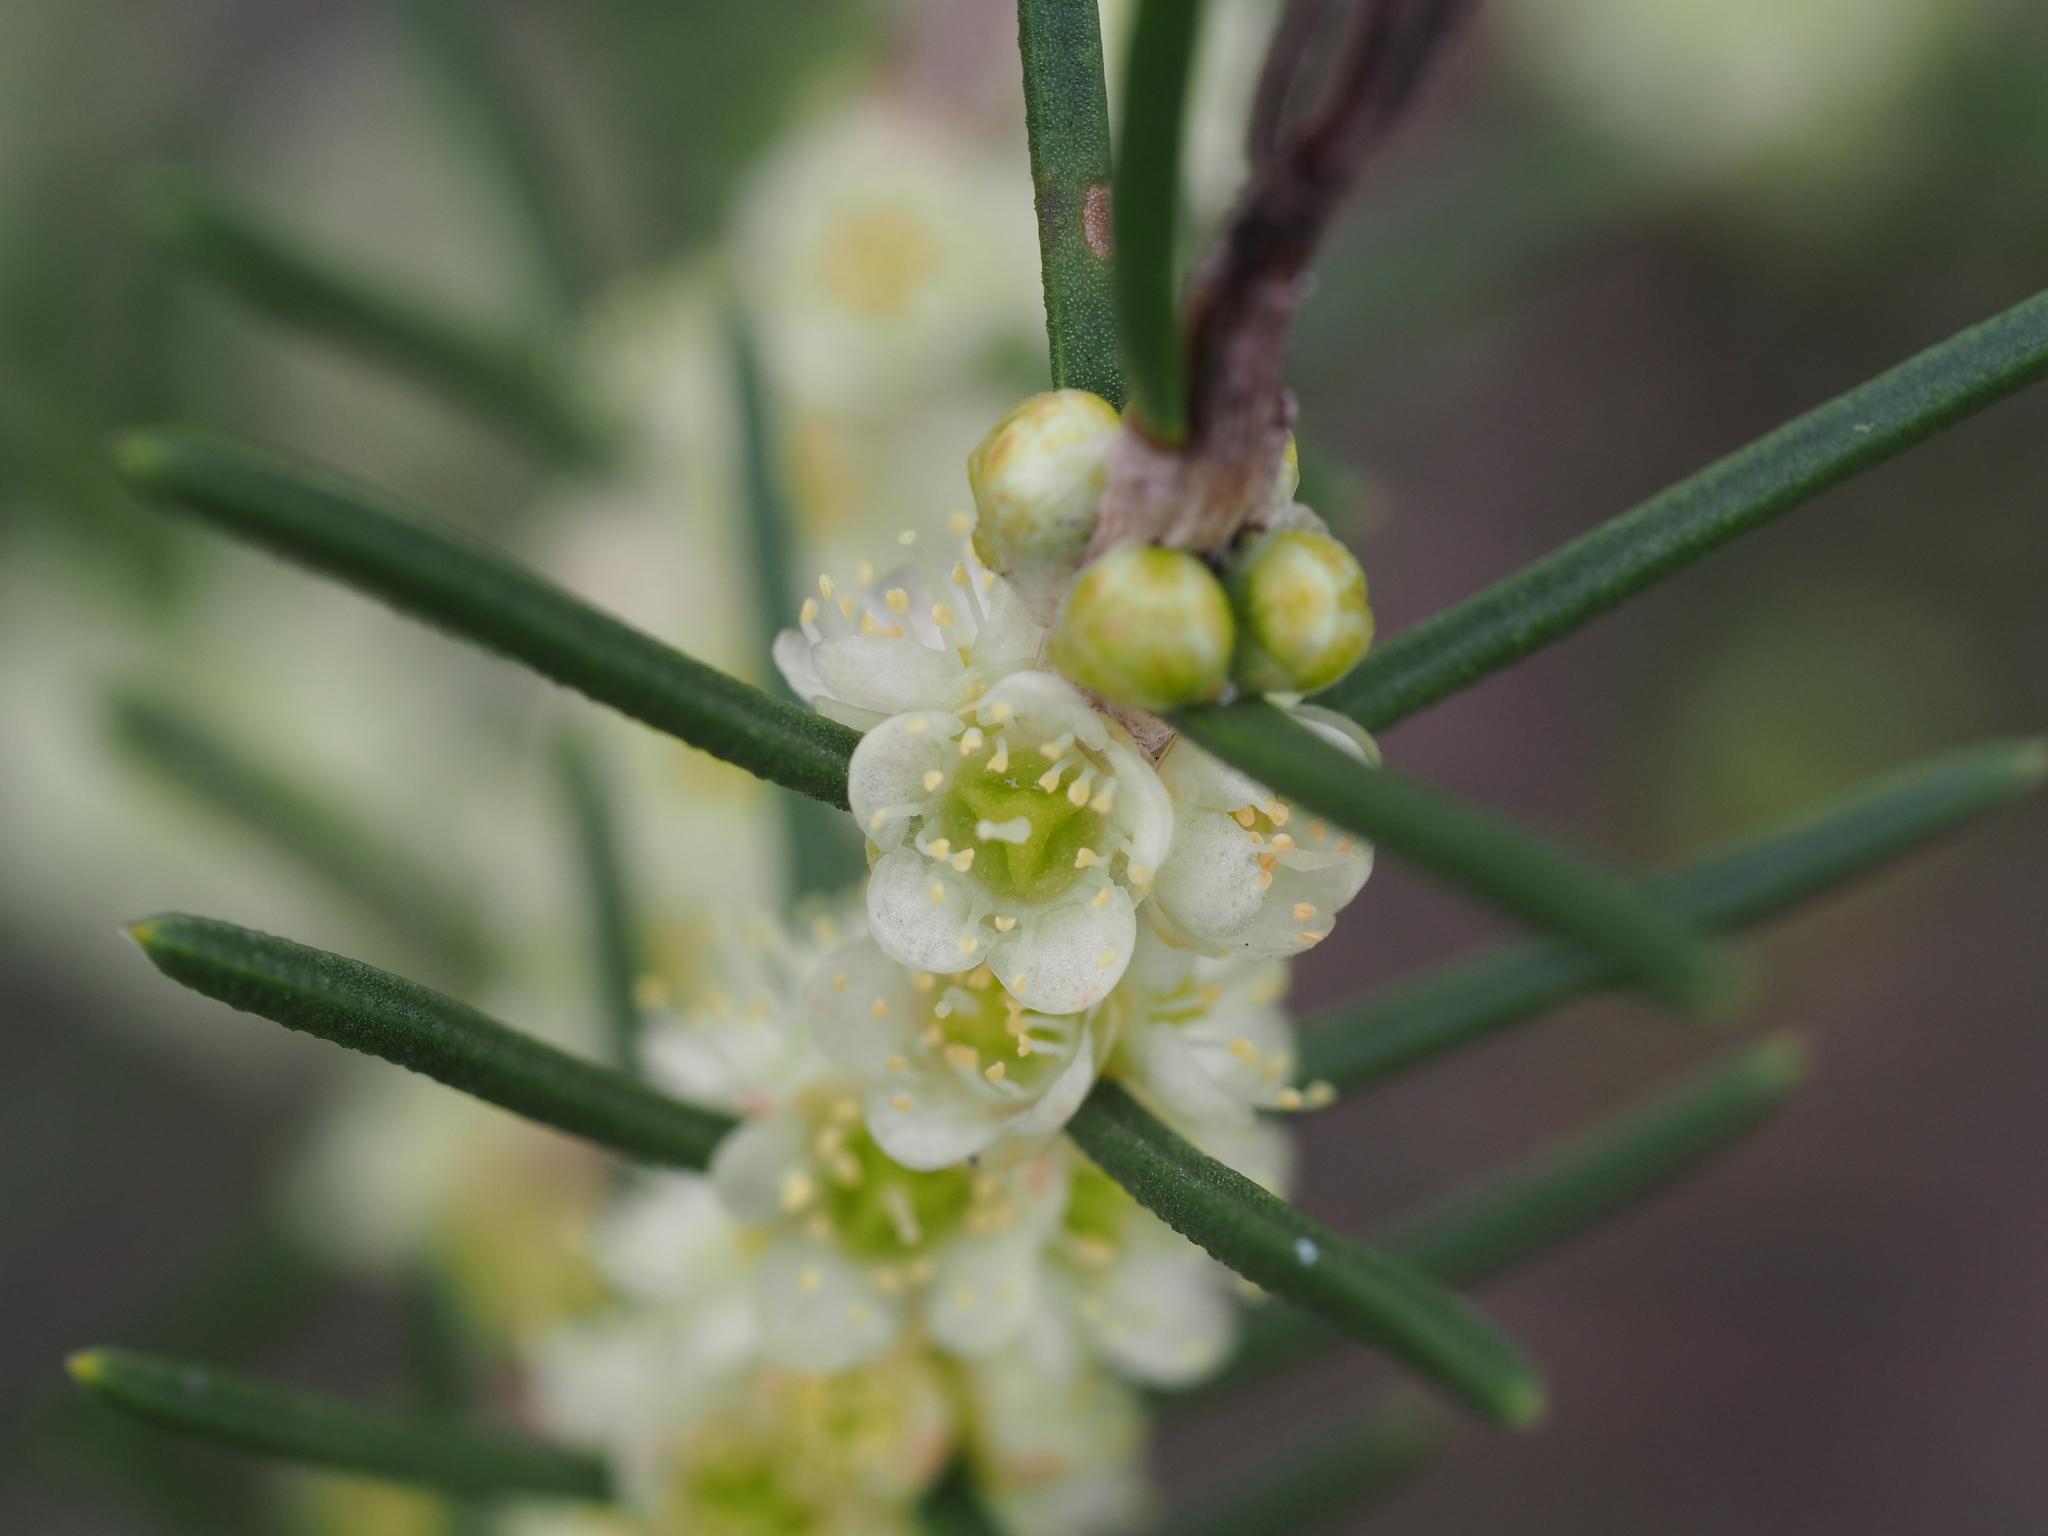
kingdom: Plantae
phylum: Tracheophyta
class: Magnoliopsida
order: Myrtales
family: Myrtaceae
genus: Hypocalymma
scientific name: Hypocalymma angustifolium
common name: White myrtle
